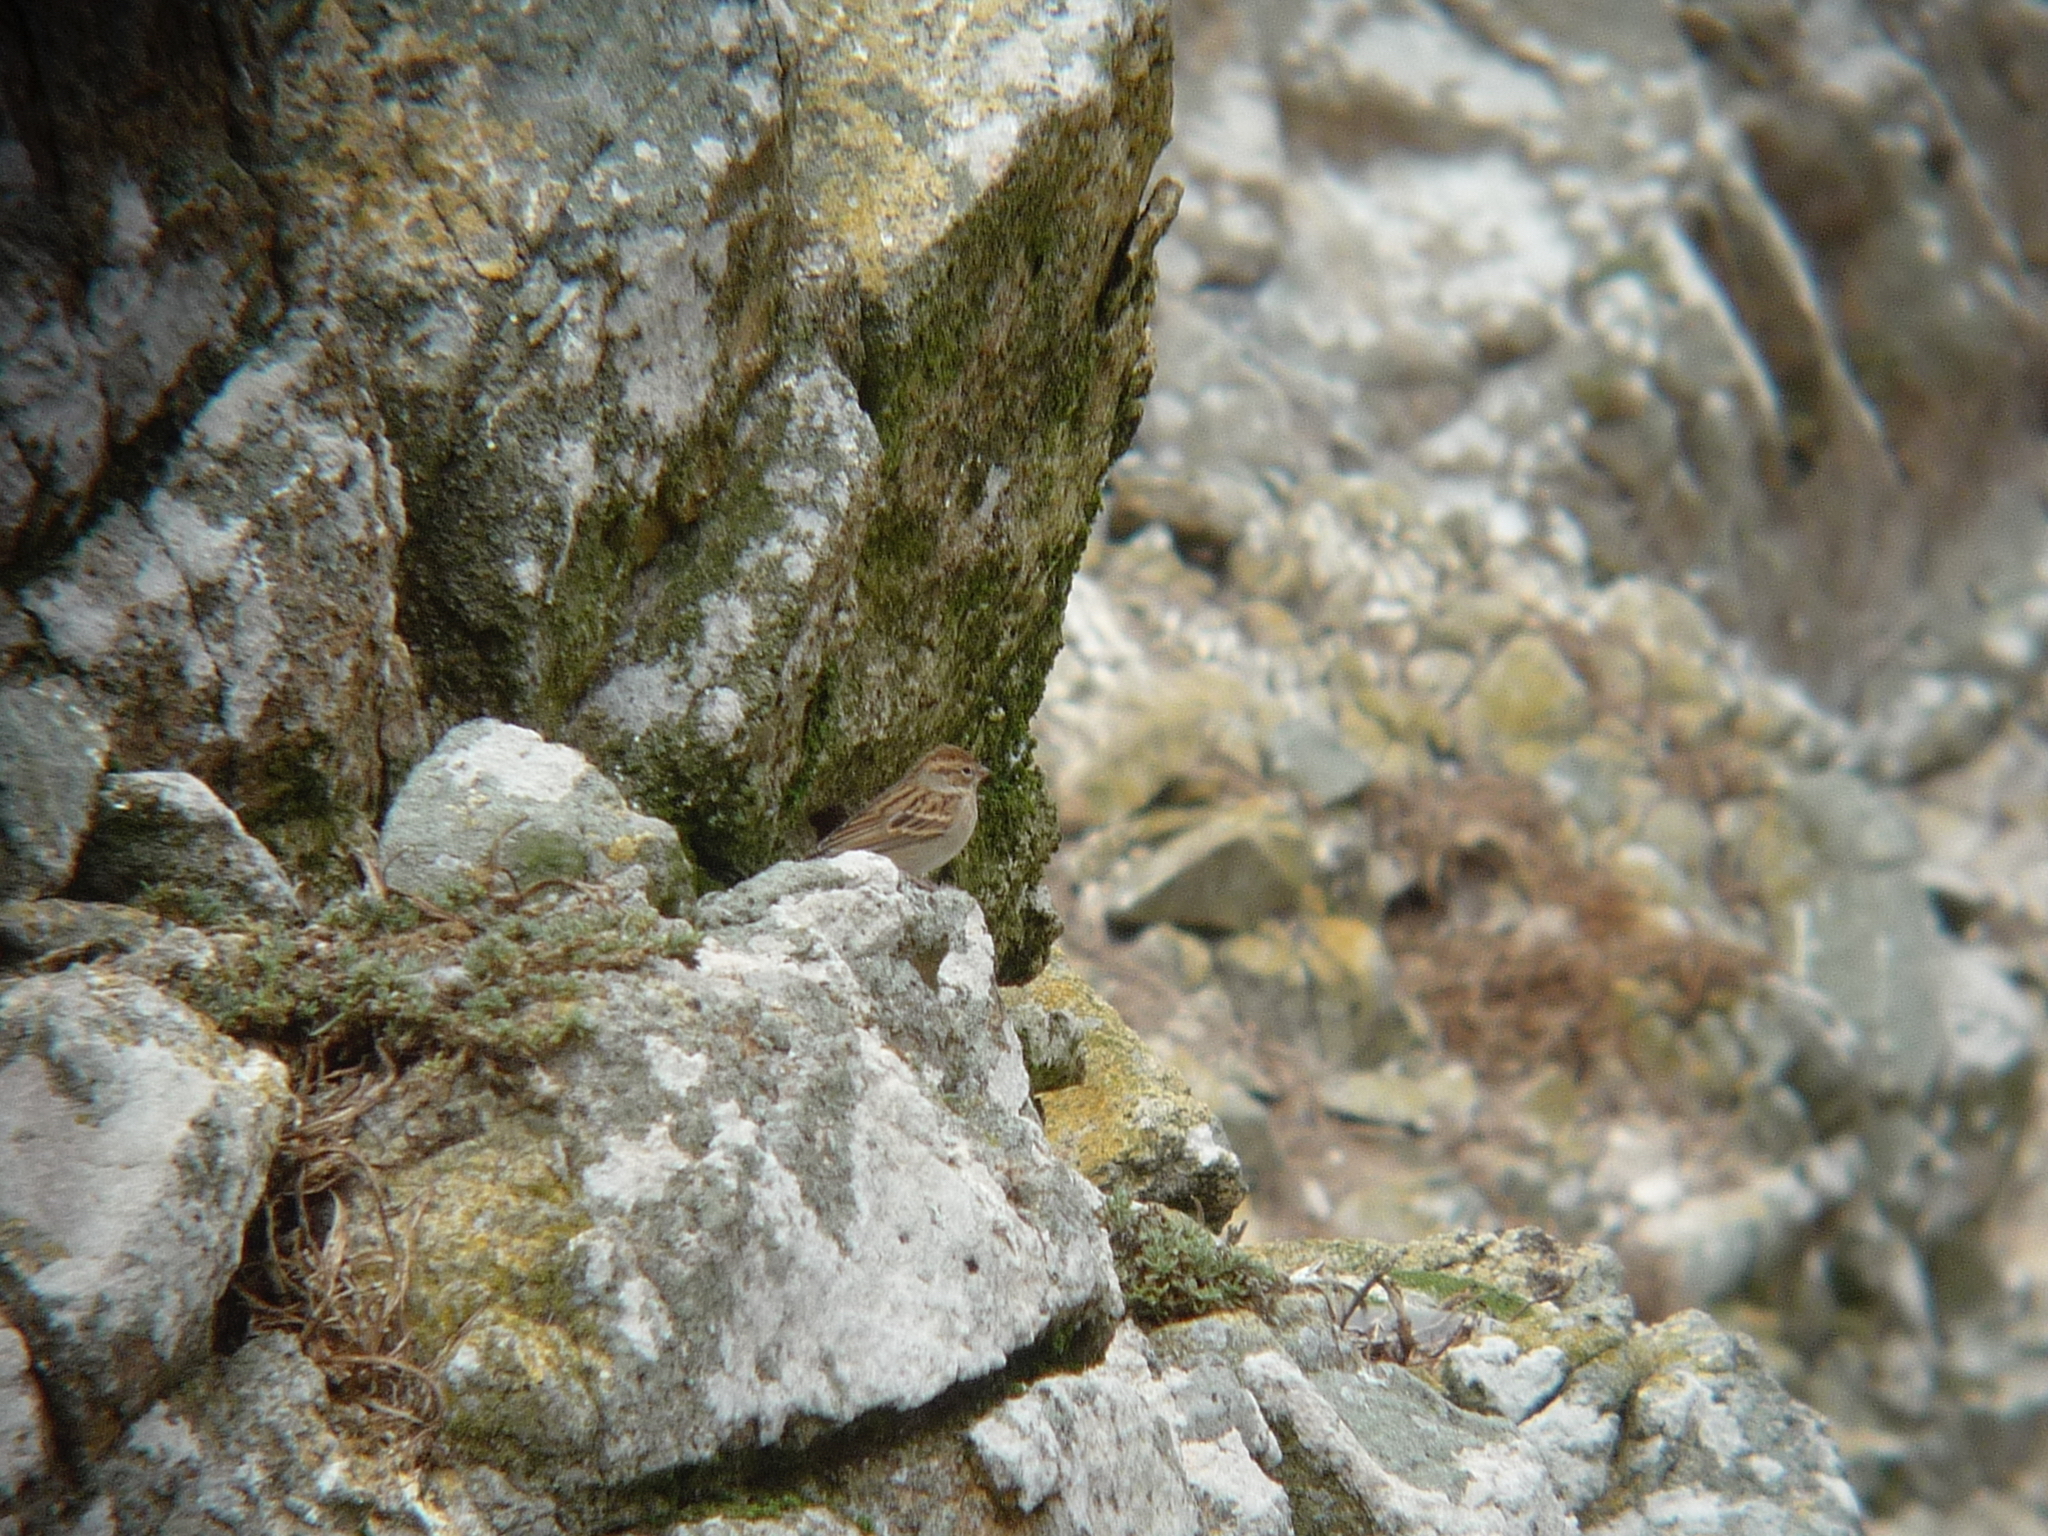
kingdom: Animalia
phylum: Chordata
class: Aves
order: Passeriformes
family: Passerellidae
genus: Spizella
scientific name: Spizella passerina
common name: Chipping sparrow
